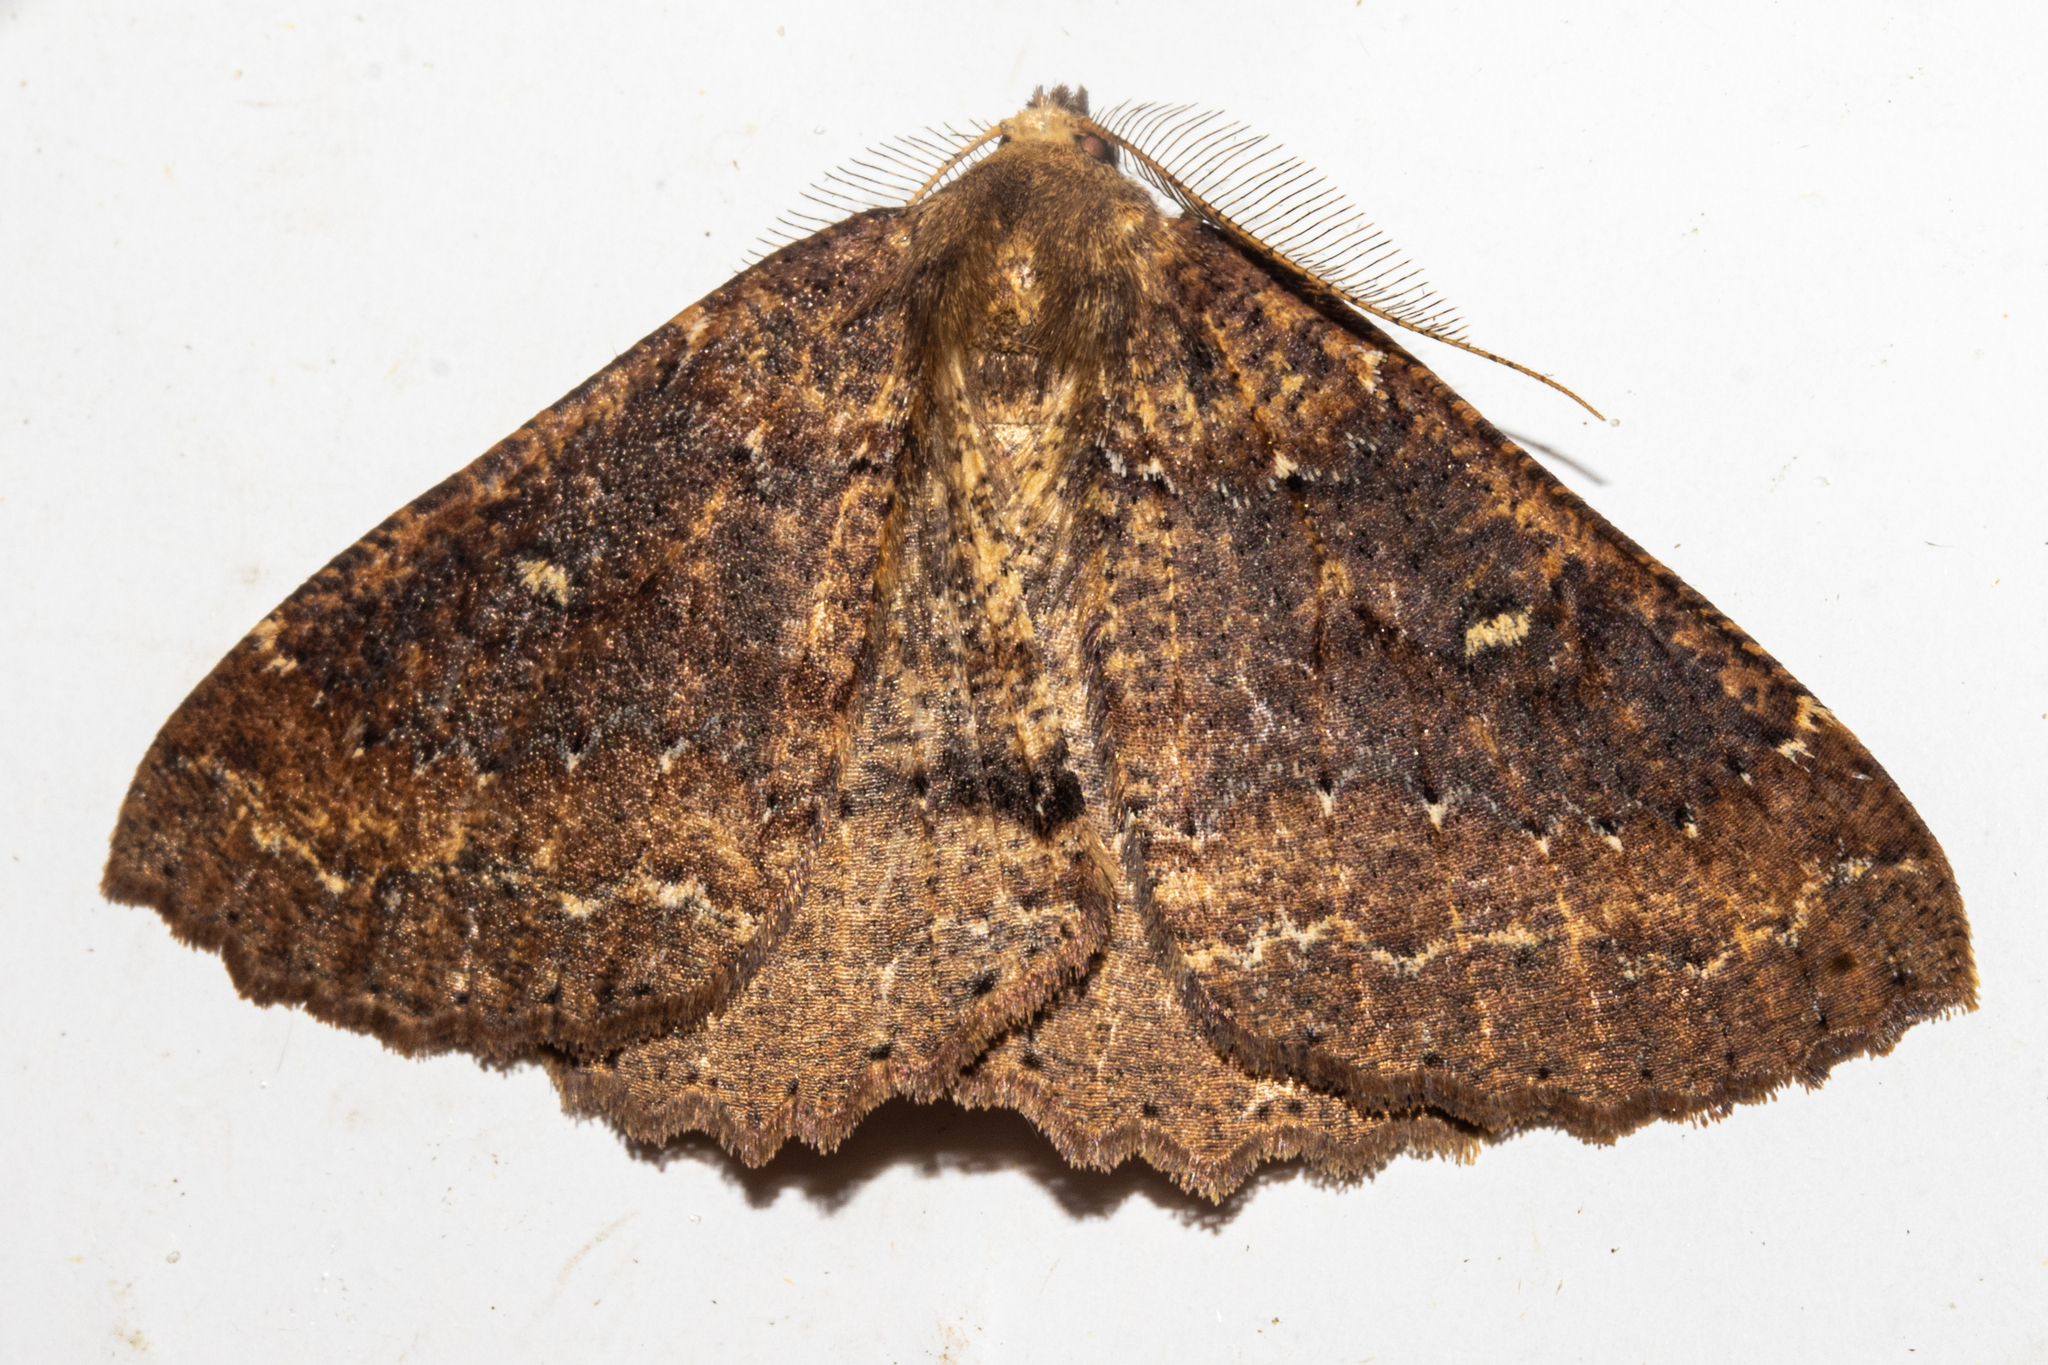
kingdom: Animalia
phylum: Arthropoda
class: Insecta
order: Lepidoptera
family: Geometridae
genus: Cleora
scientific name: Cleora scriptaria
